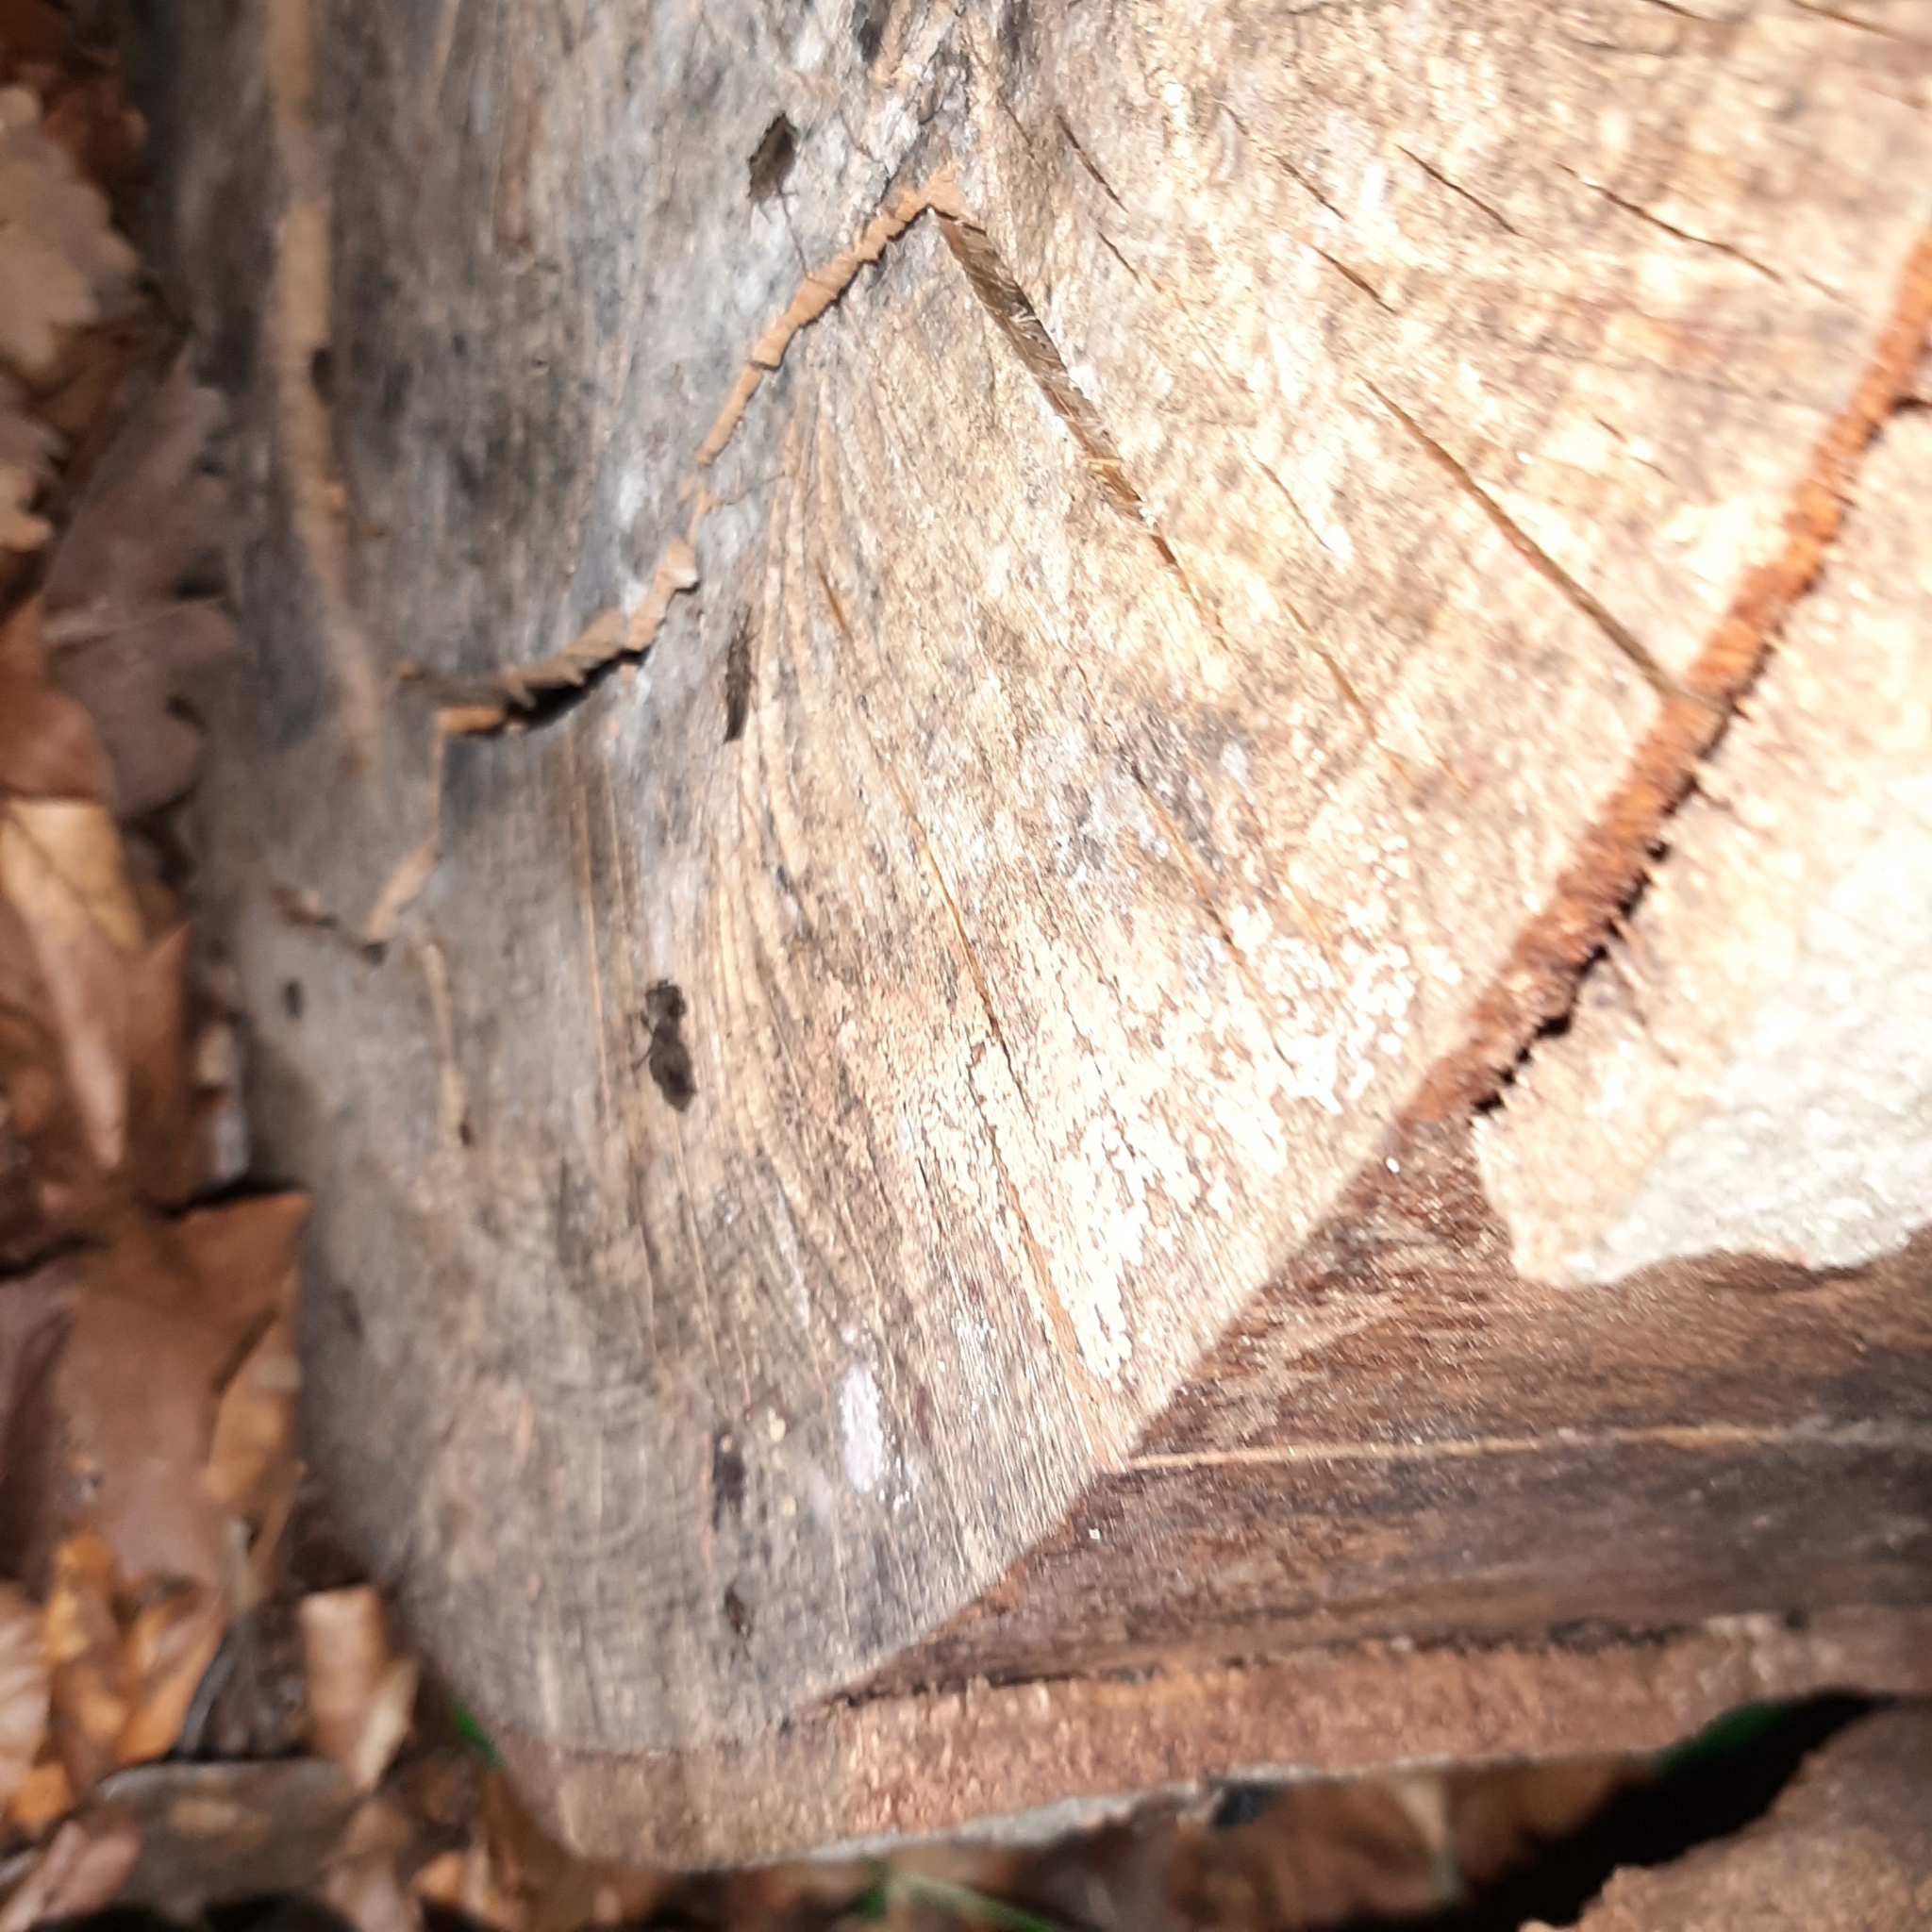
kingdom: Animalia
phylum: Arthropoda
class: Insecta
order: Hemiptera
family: Aradidae
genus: Aradus
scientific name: Aradus conspicuus
